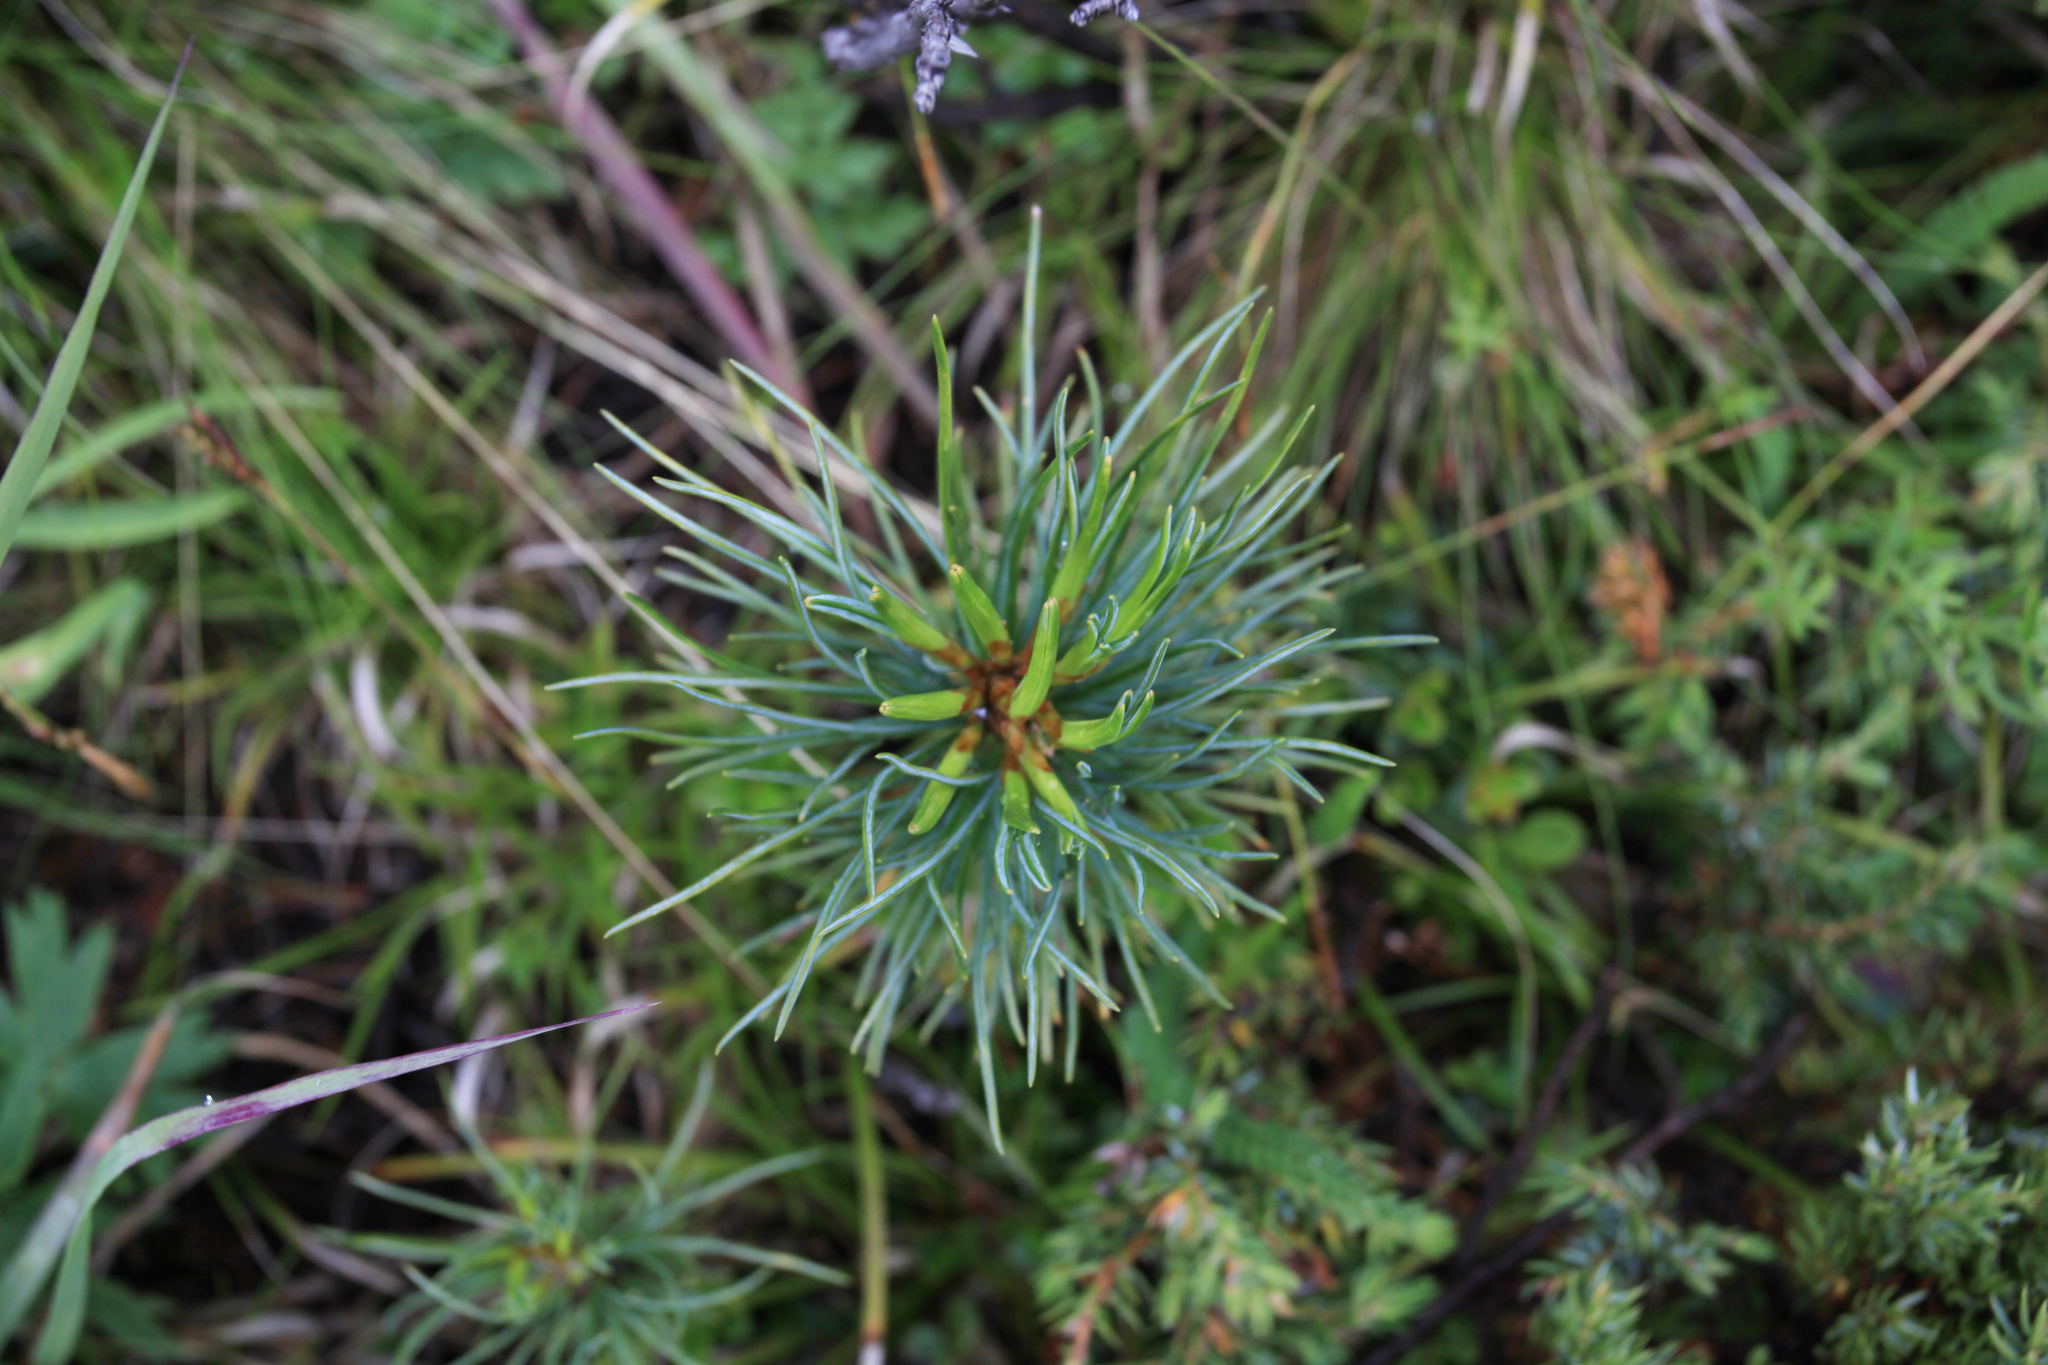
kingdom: Plantae
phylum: Tracheophyta
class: Pinopsida
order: Pinales
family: Pinaceae
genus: Pinus
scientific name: Pinus sibirica
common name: Siberian pine
